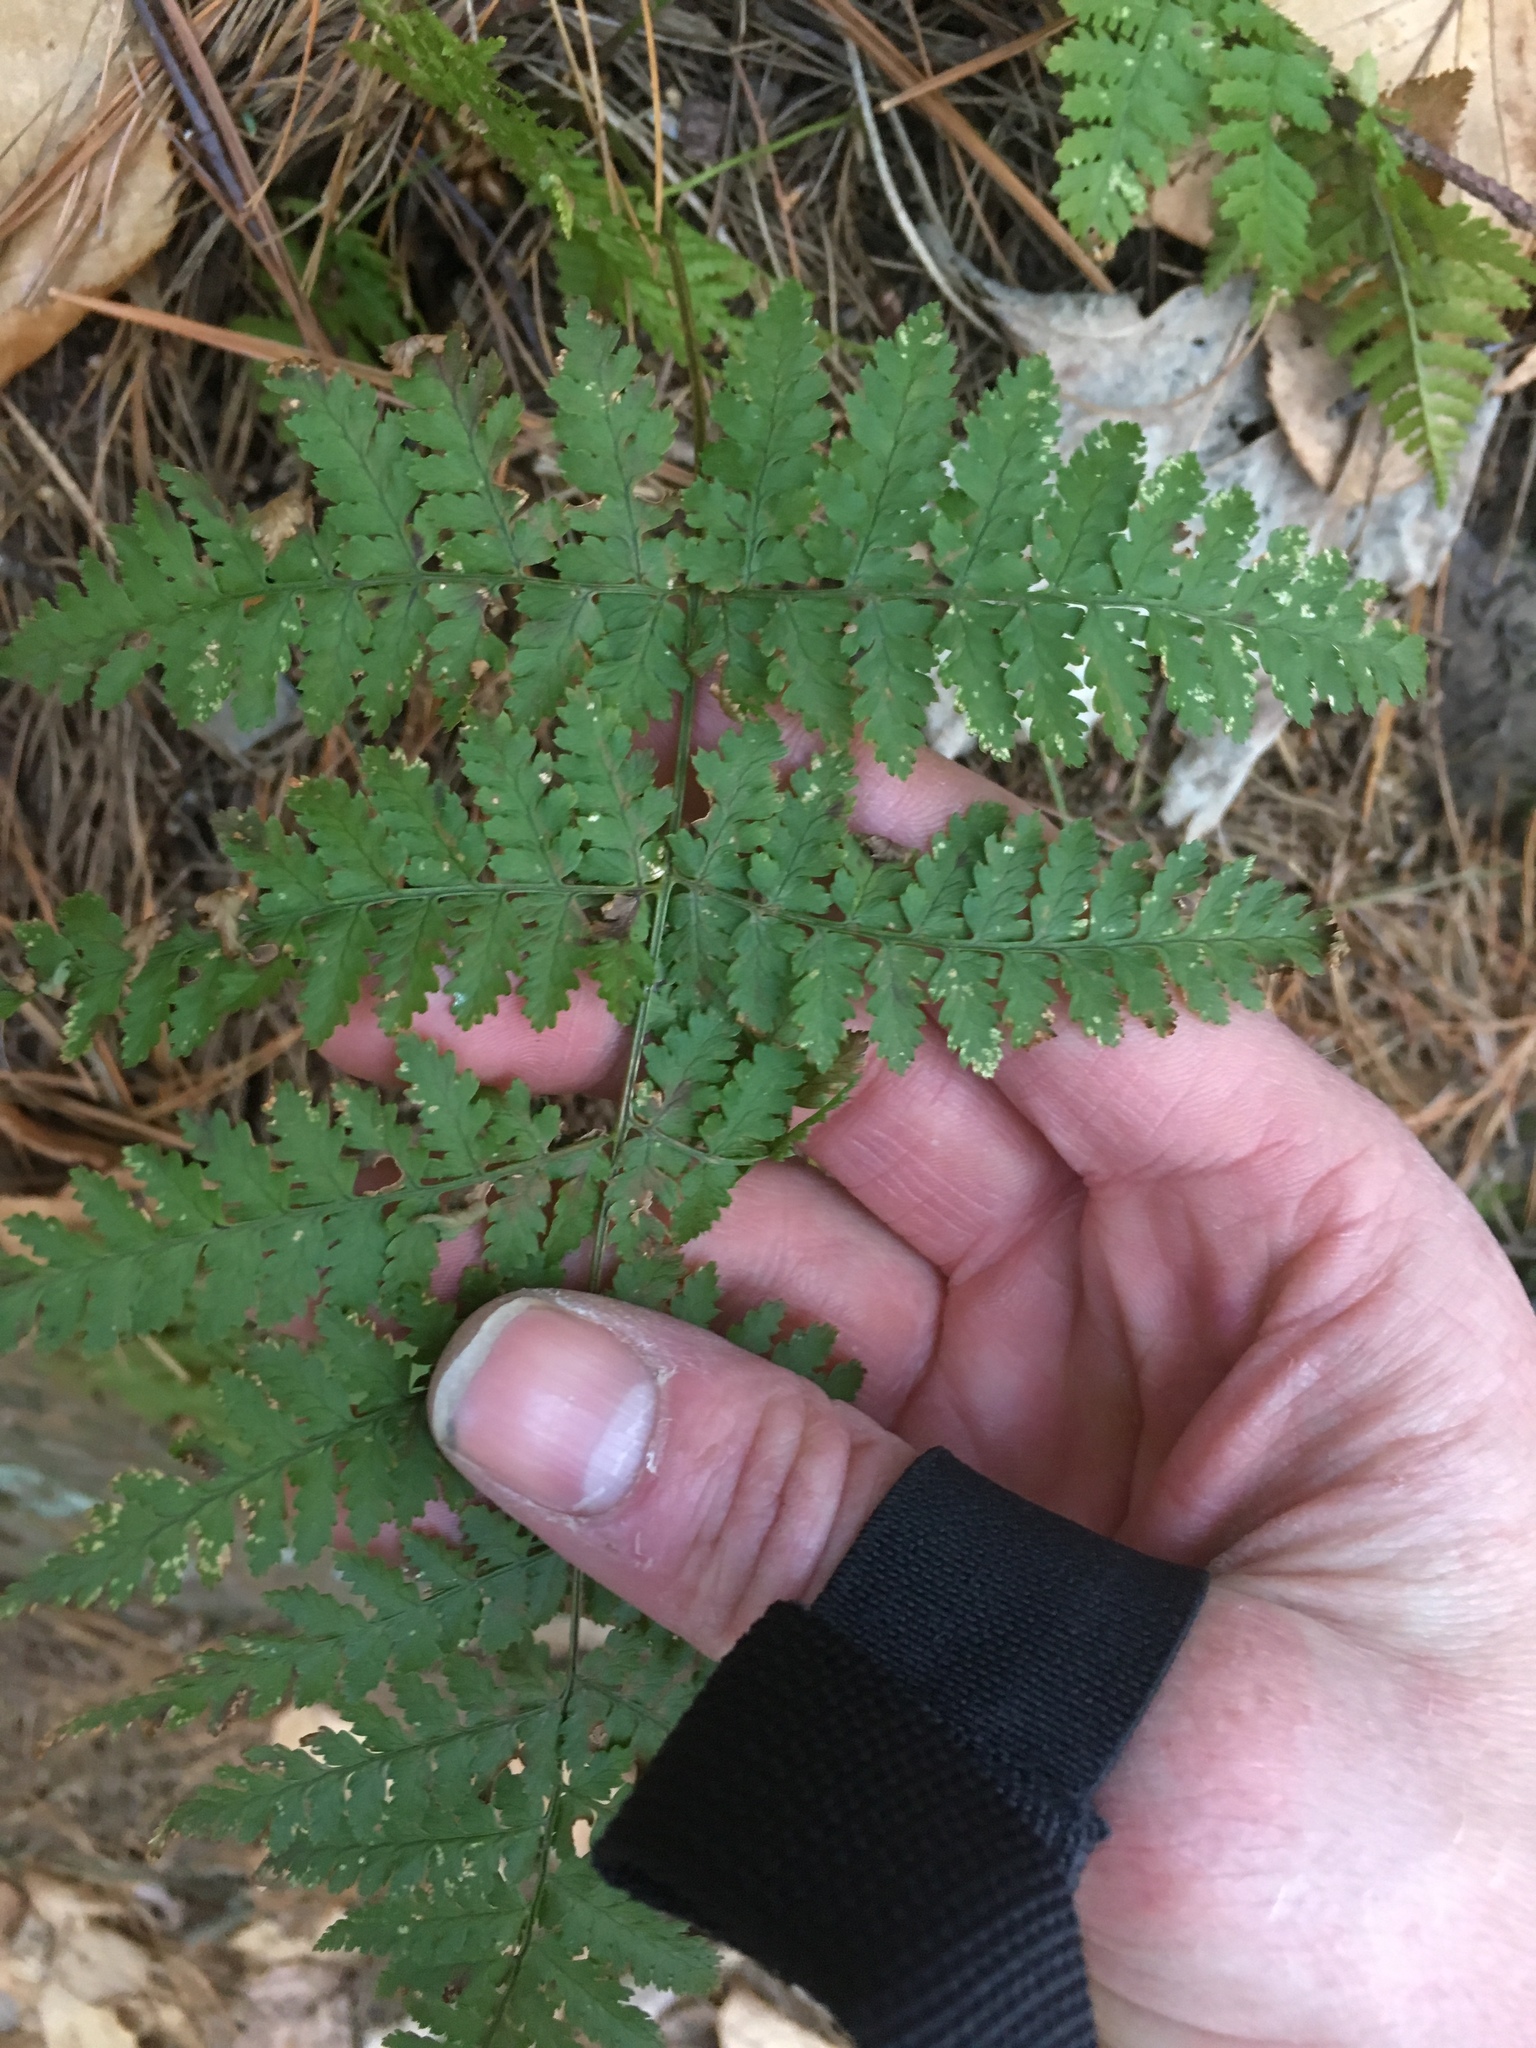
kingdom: Plantae
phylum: Tracheophyta
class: Polypodiopsida
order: Polypodiales
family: Dryopteridaceae
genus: Dryopteris
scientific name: Dryopteris intermedia
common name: Evergreen wood fern
